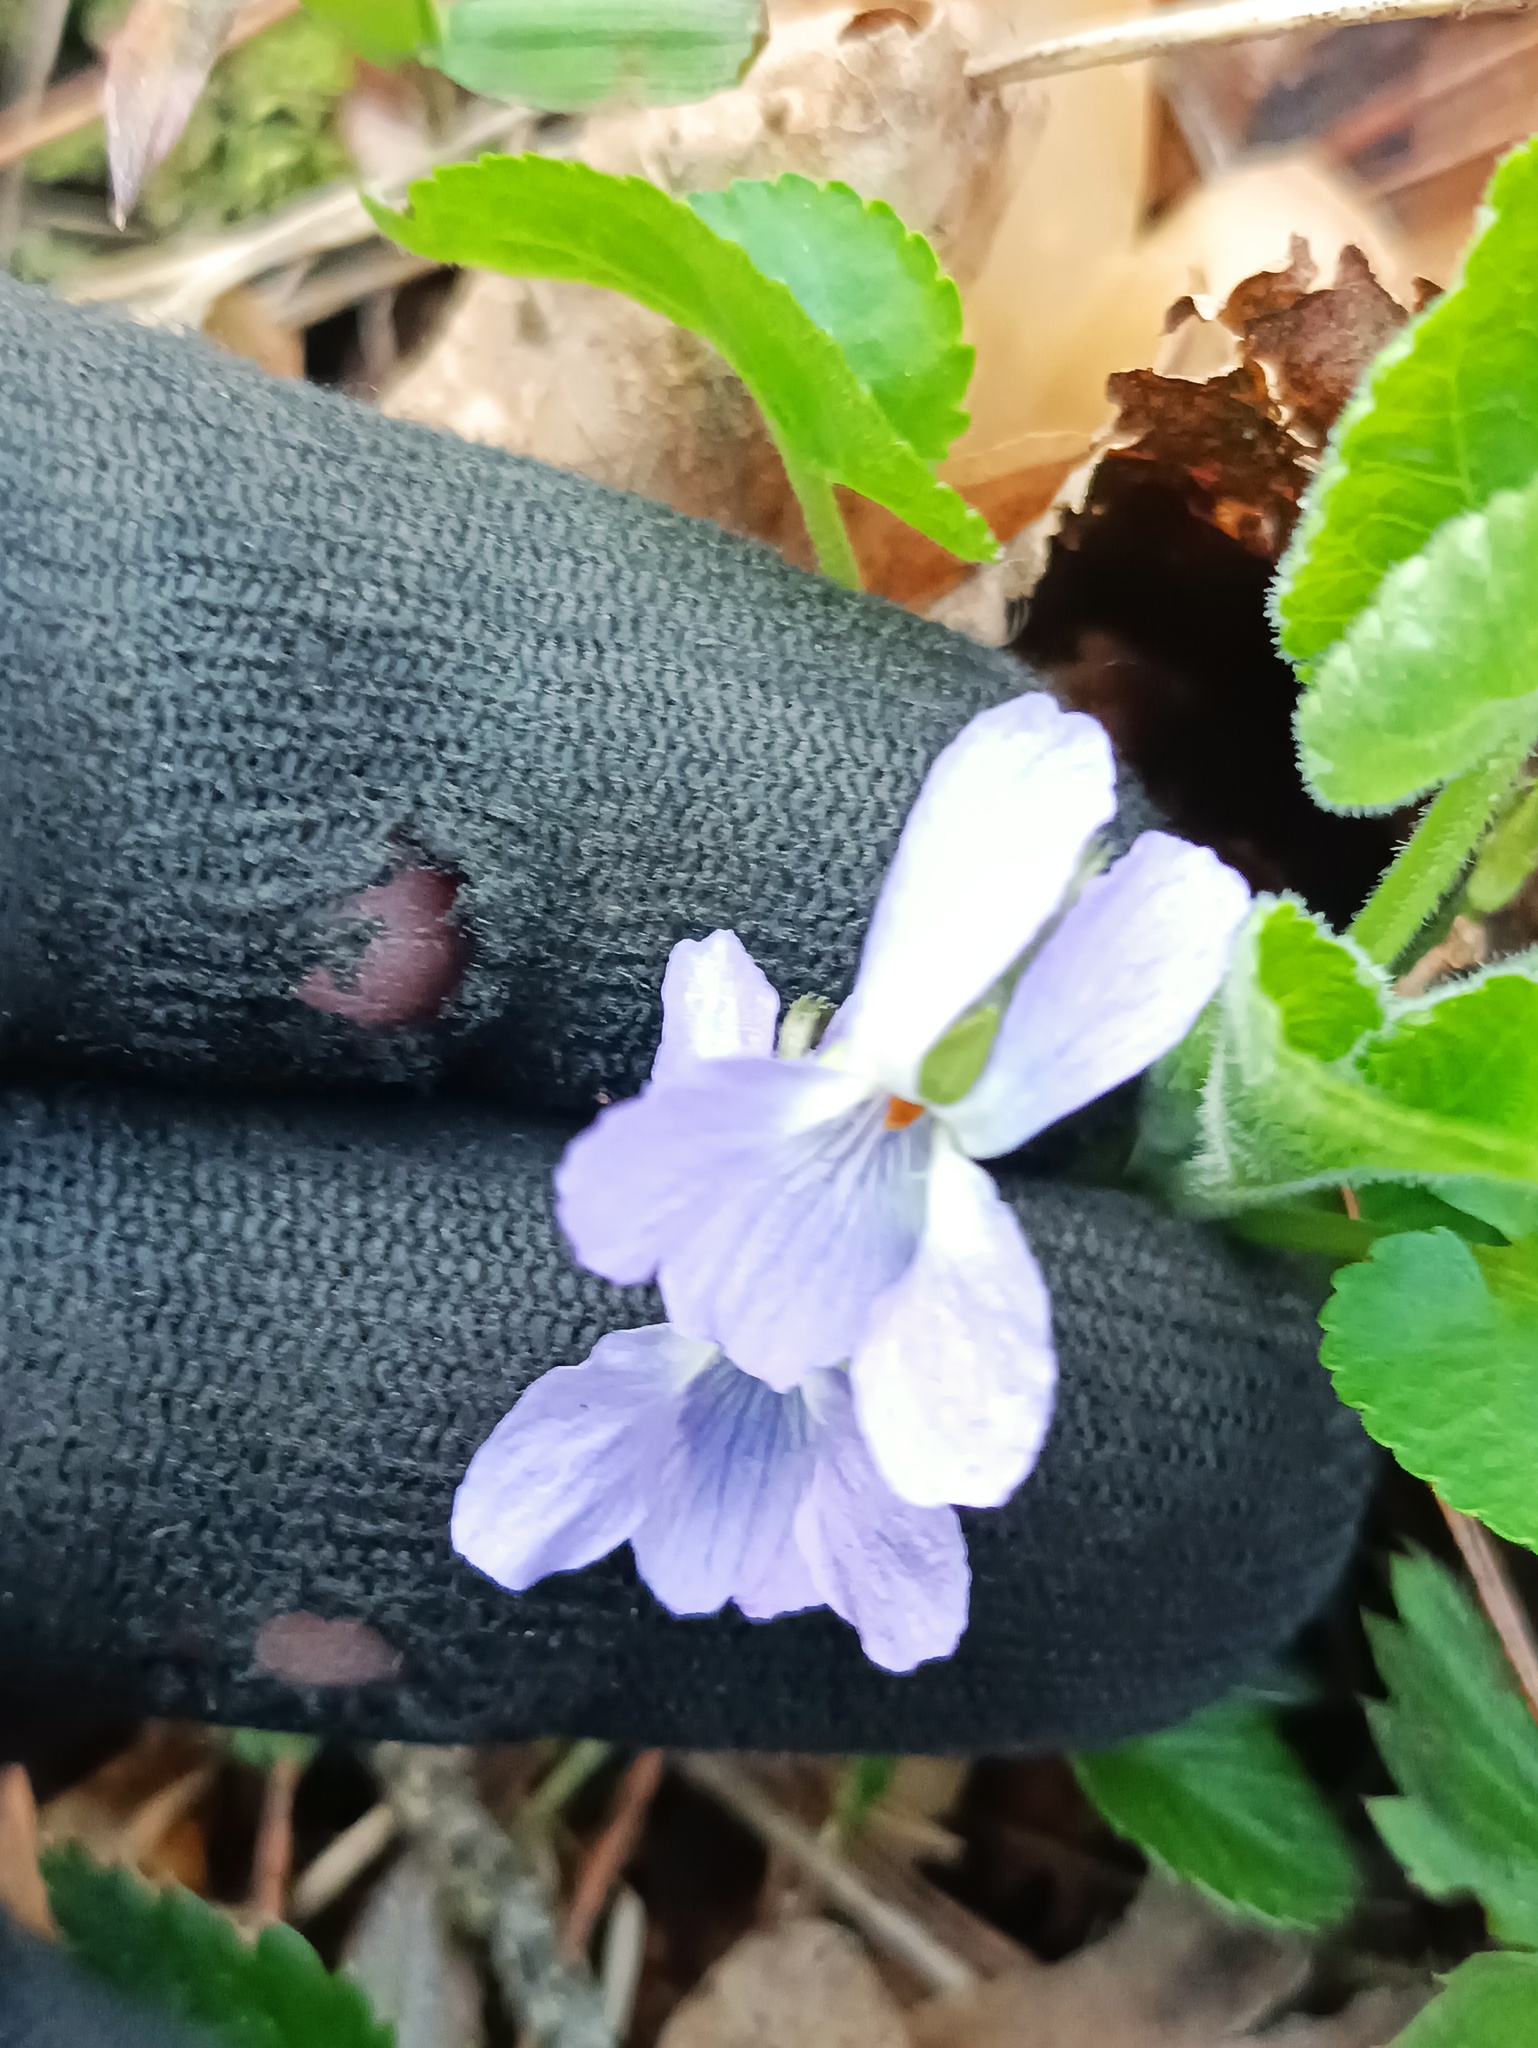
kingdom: Plantae
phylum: Tracheophyta
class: Magnoliopsida
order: Malpighiales
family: Violaceae
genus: Viola
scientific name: Viola collina
